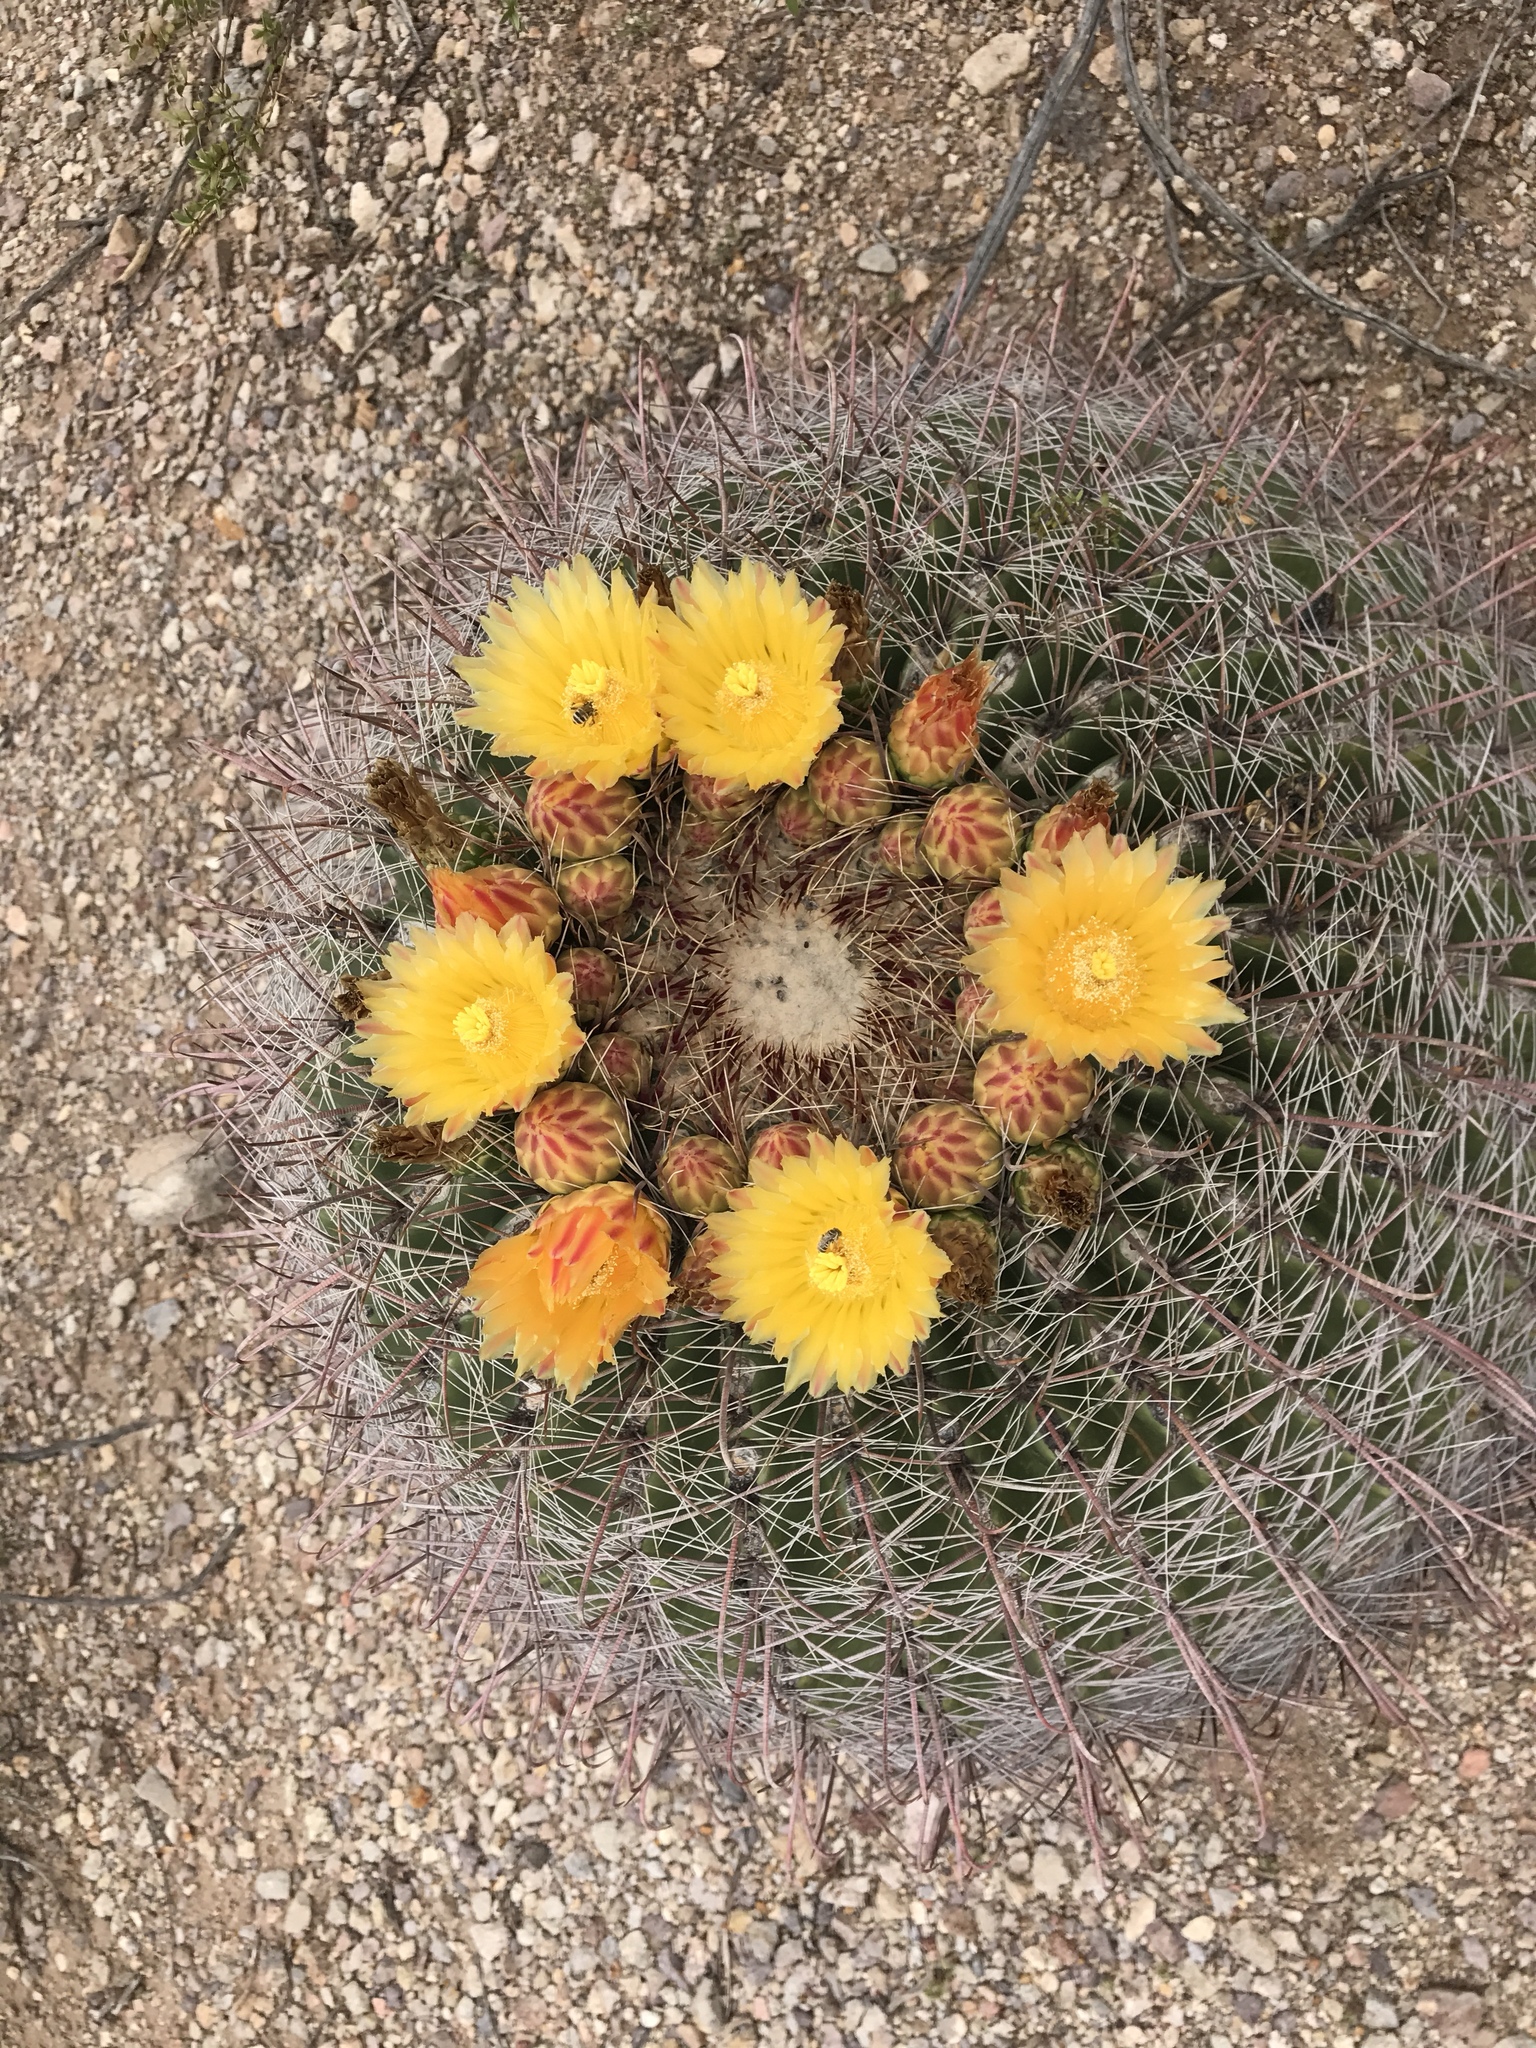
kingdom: Plantae
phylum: Tracheophyta
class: Magnoliopsida
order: Caryophyllales
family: Cactaceae
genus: Ferocactus
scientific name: Ferocactus wislizeni
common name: Candy barrel cactus
